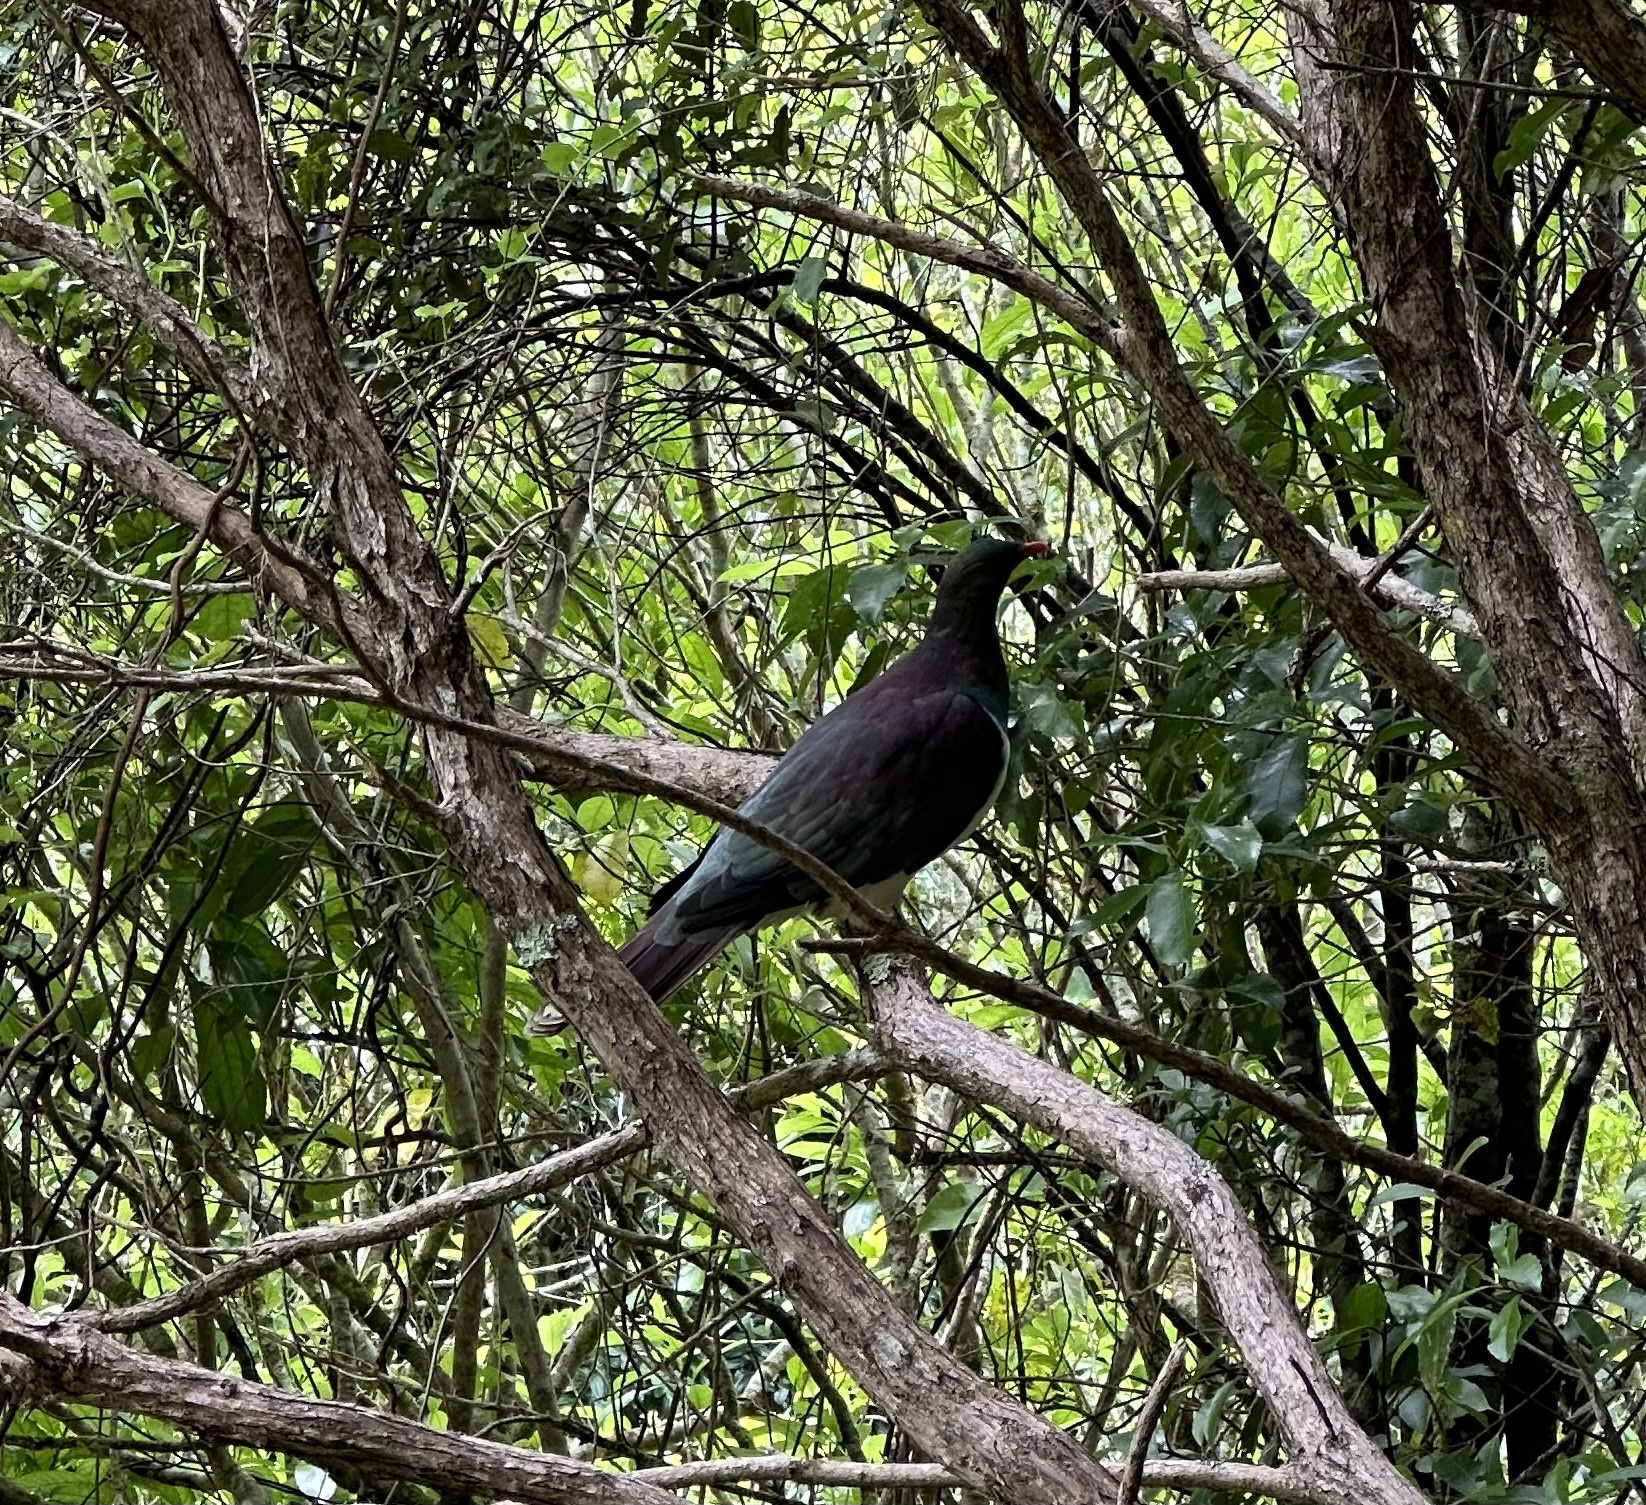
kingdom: Animalia
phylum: Chordata
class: Aves
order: Columbiformes
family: Columbidae
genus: Hemiphaga
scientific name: Hemiphaga novaeseelandiae
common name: New zealand pigeon
